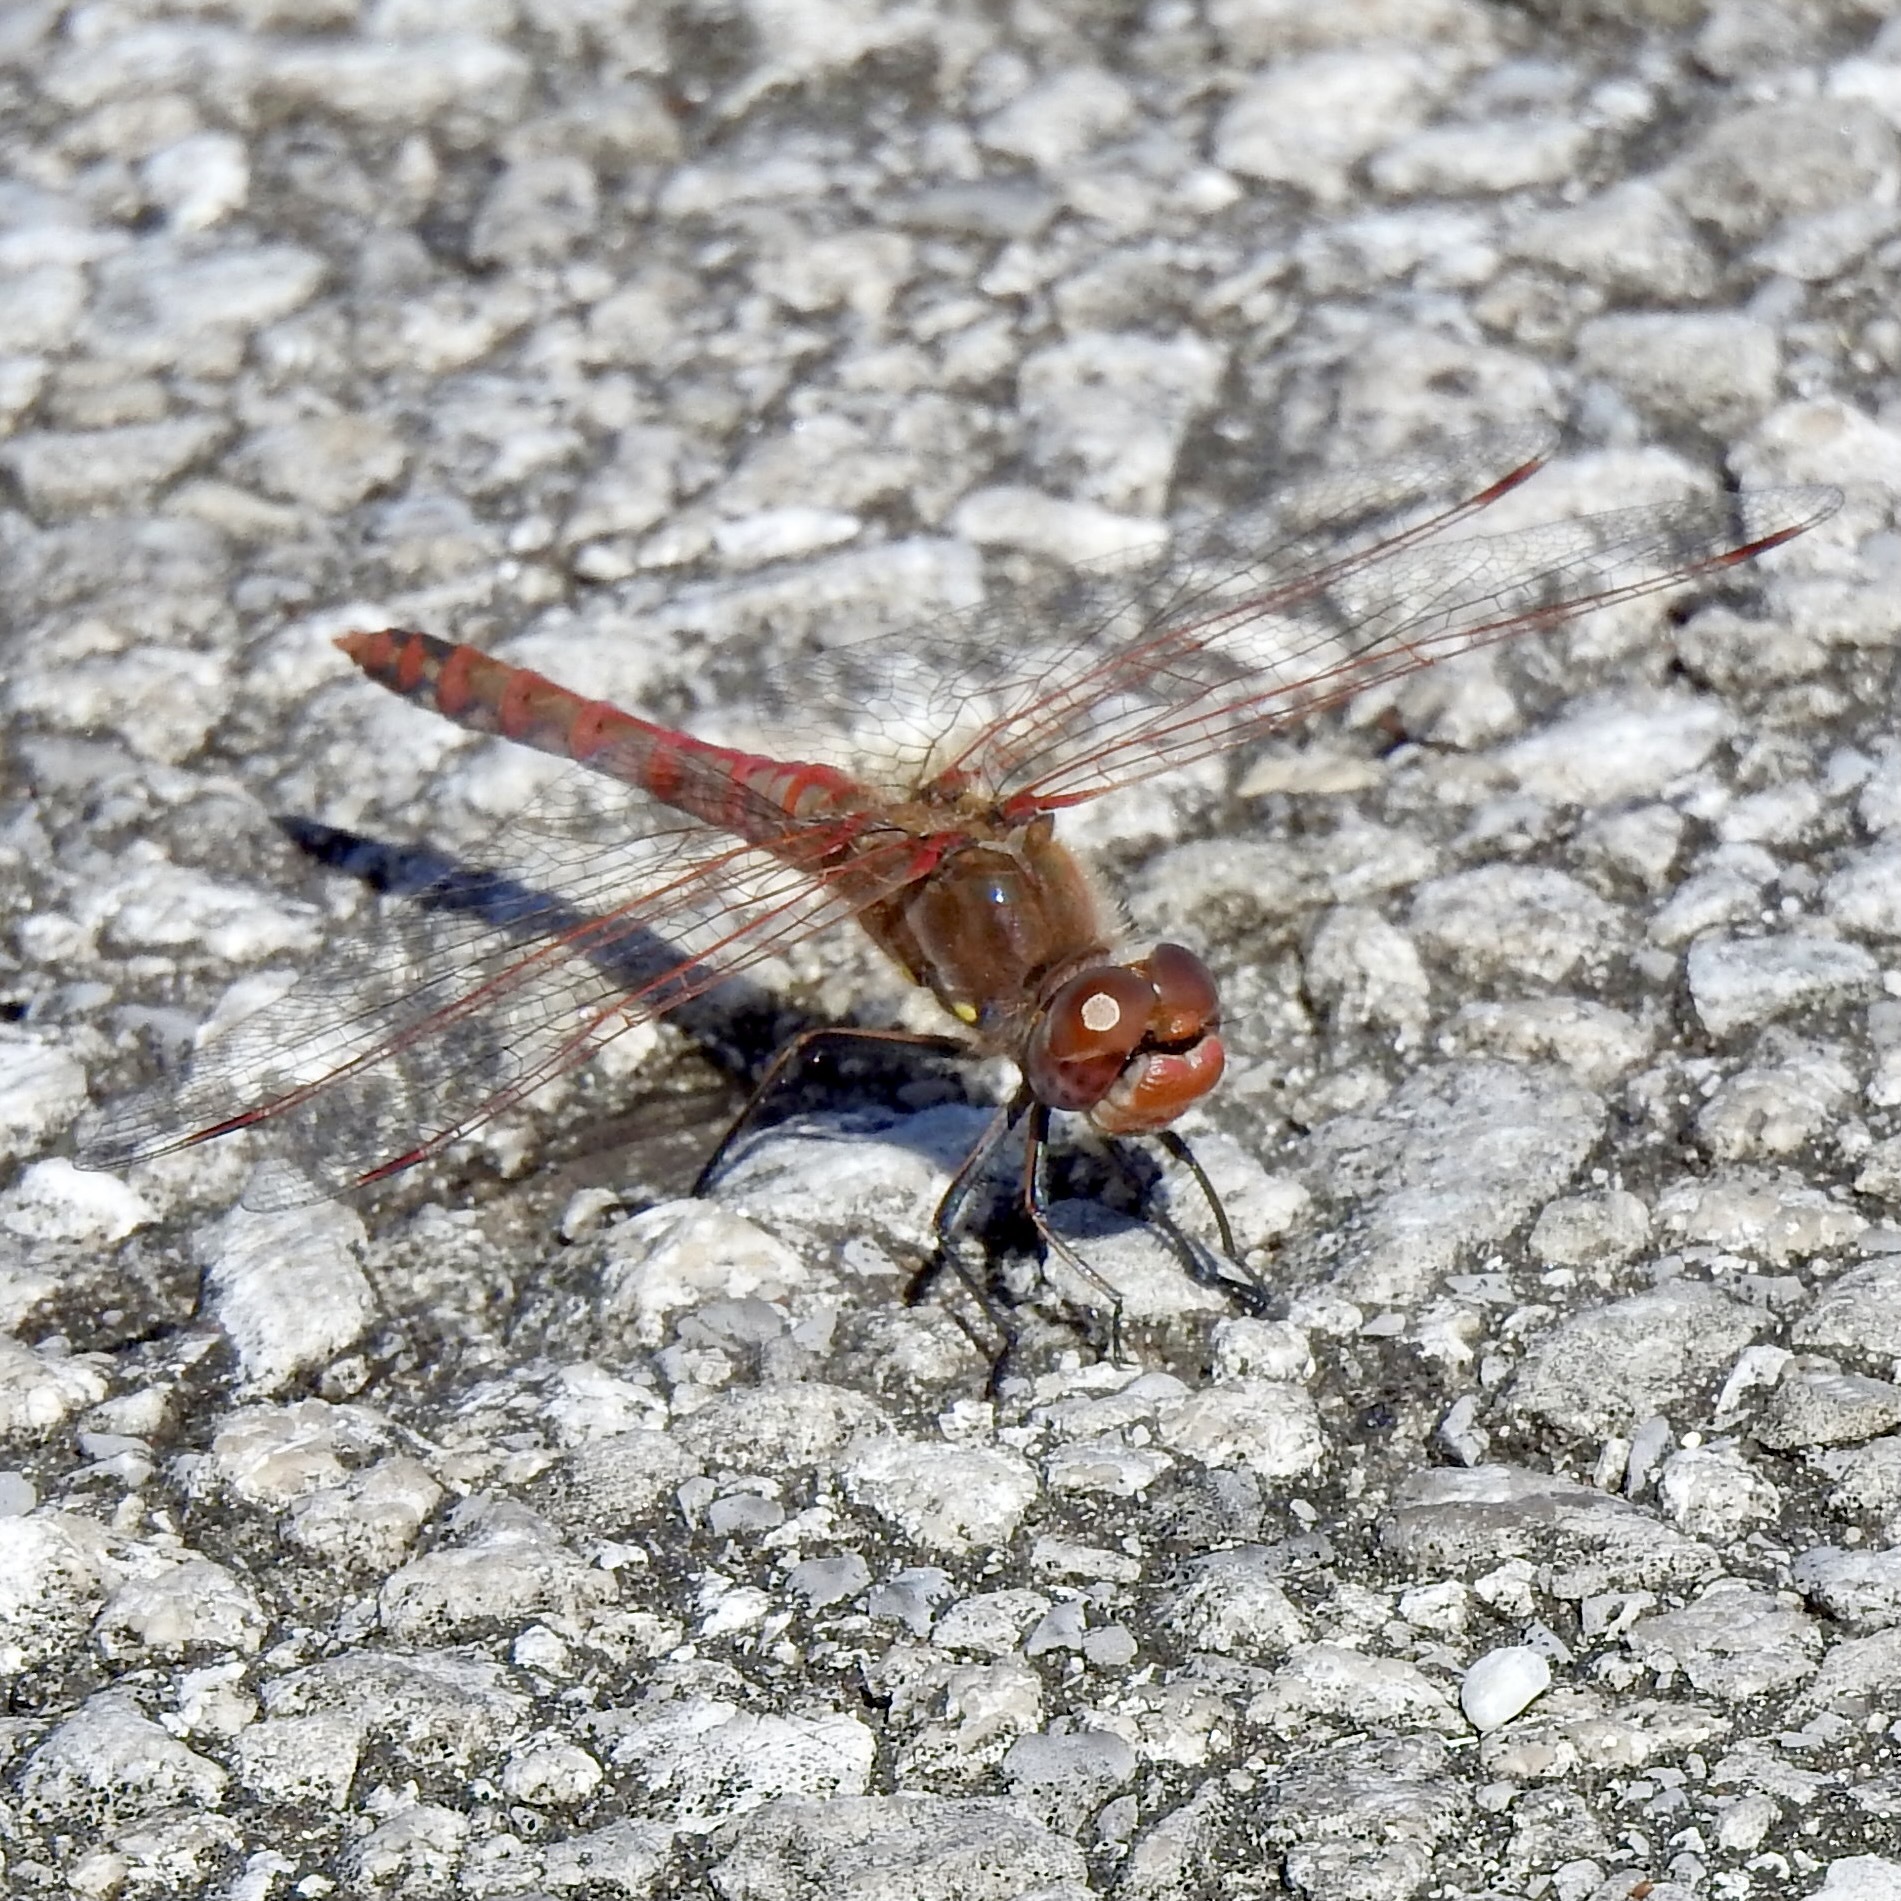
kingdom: Animalia
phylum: Arthropoda
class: Insecta
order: Odonata
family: Libellulidae
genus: Sympetrum
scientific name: Sympetrum corruptum
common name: Variegated meadowhawk
